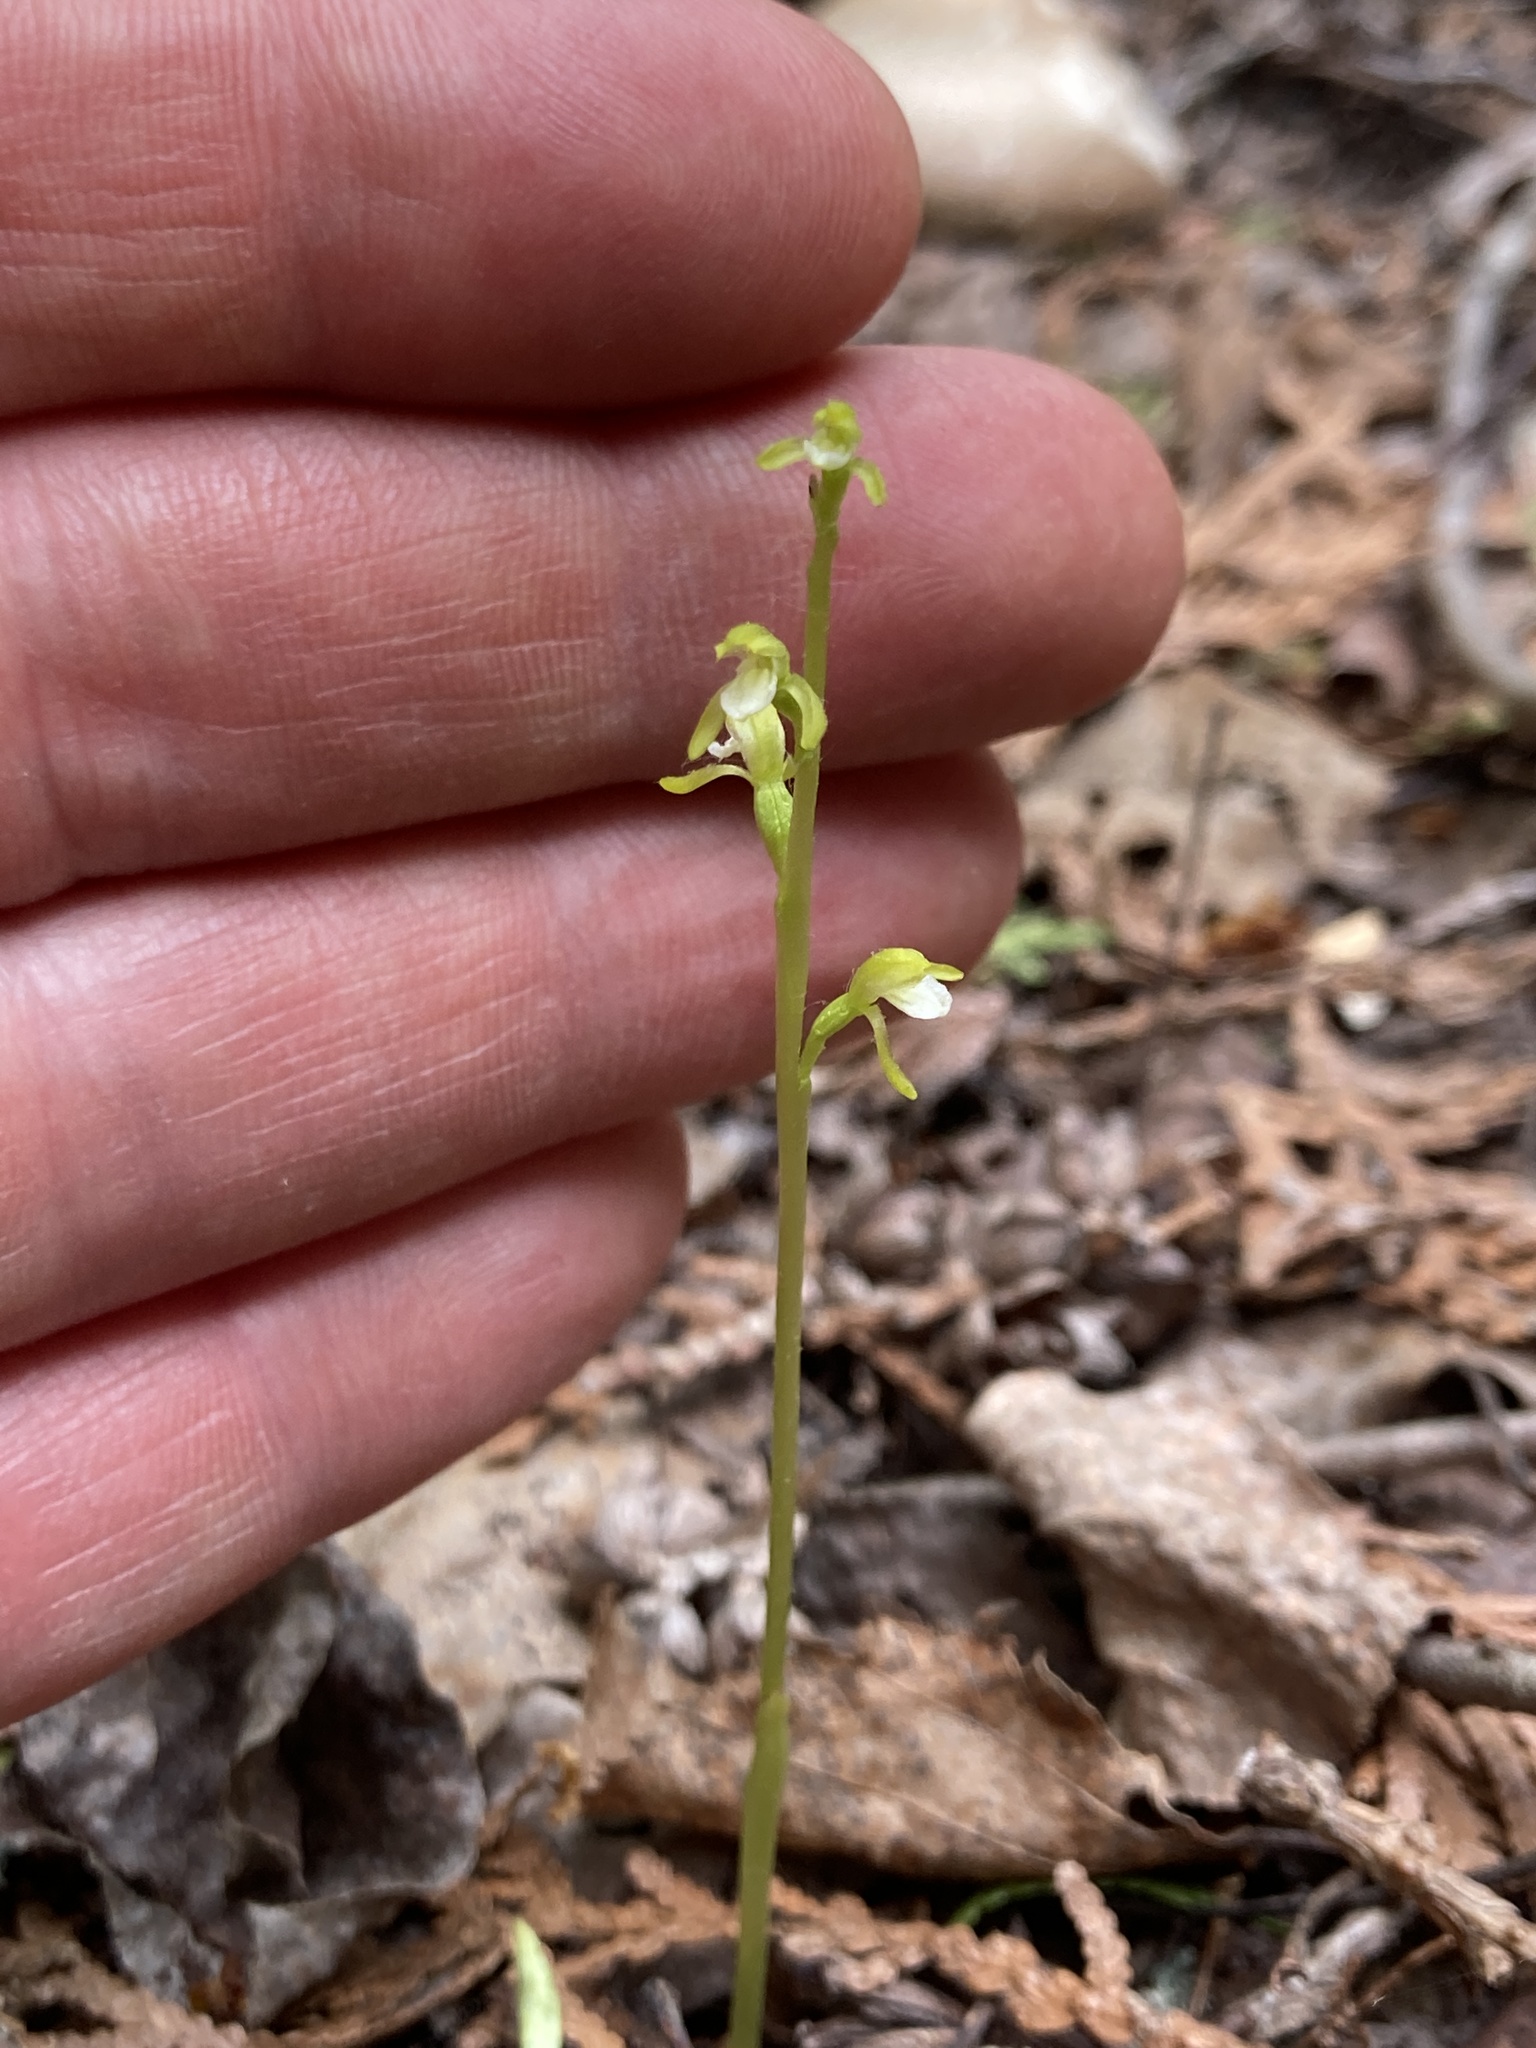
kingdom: Plantae
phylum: Tracheophyta
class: Liliopsida
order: Asparagales
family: Orchidaceae
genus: Corallorhiza
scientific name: Corallorhiza trifida
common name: Yellow coralroot
